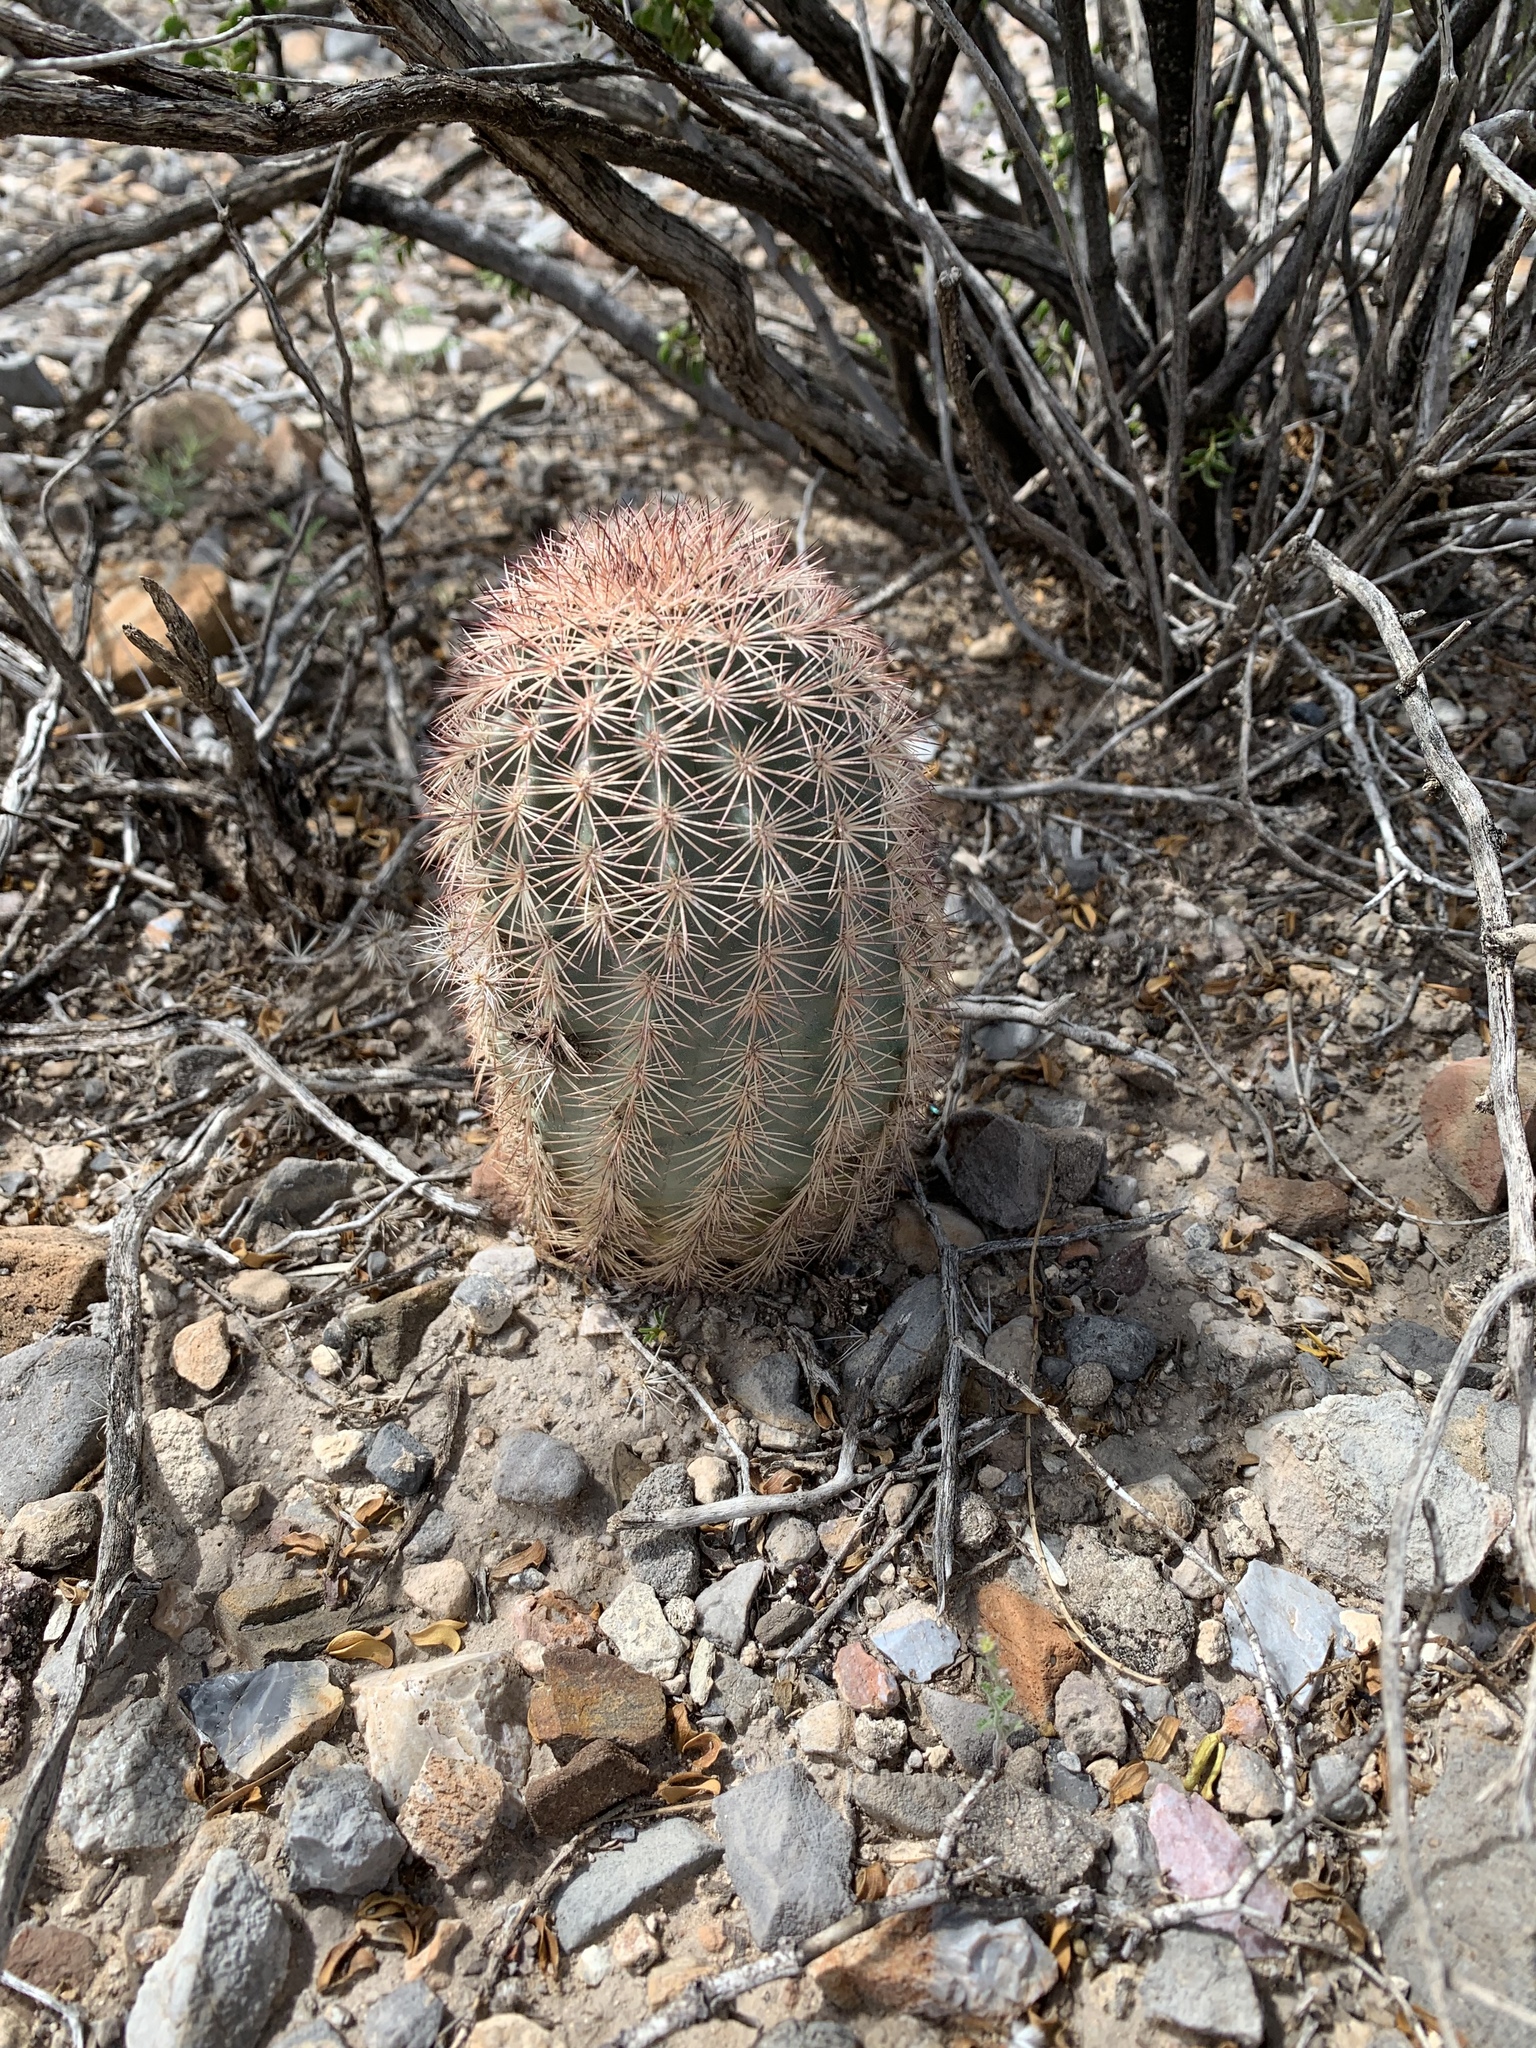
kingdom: Plantae
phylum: Tracheophyta
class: Magnoliopsida
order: Caryophyllales
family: Cactaceae
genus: Echinocereus
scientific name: Echinocereus dasyacanthus
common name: Spiny hedgehog cactus
